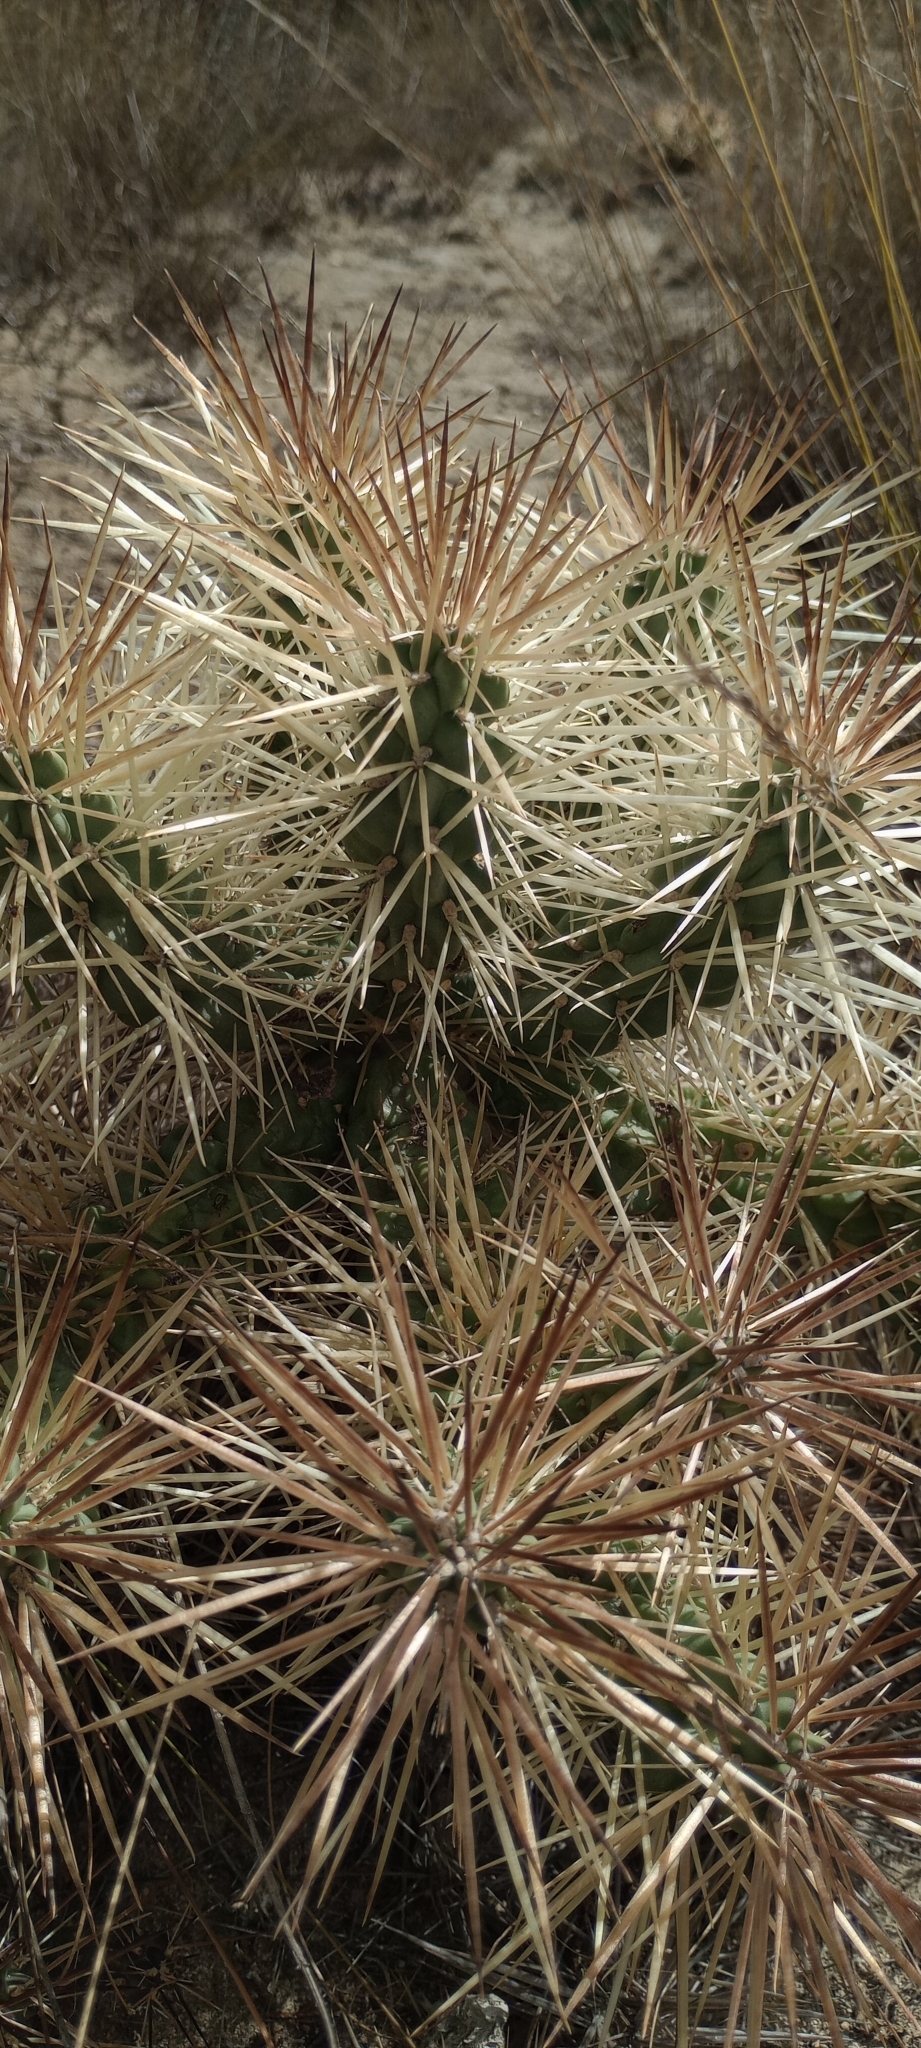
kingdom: Plantae
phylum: Tracheophyta
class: Magnoliopsida
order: Caryophyllales
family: Cactaceae
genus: Cylindropuntia
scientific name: Cylindropuntia tunicata
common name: Sheathed cholla
